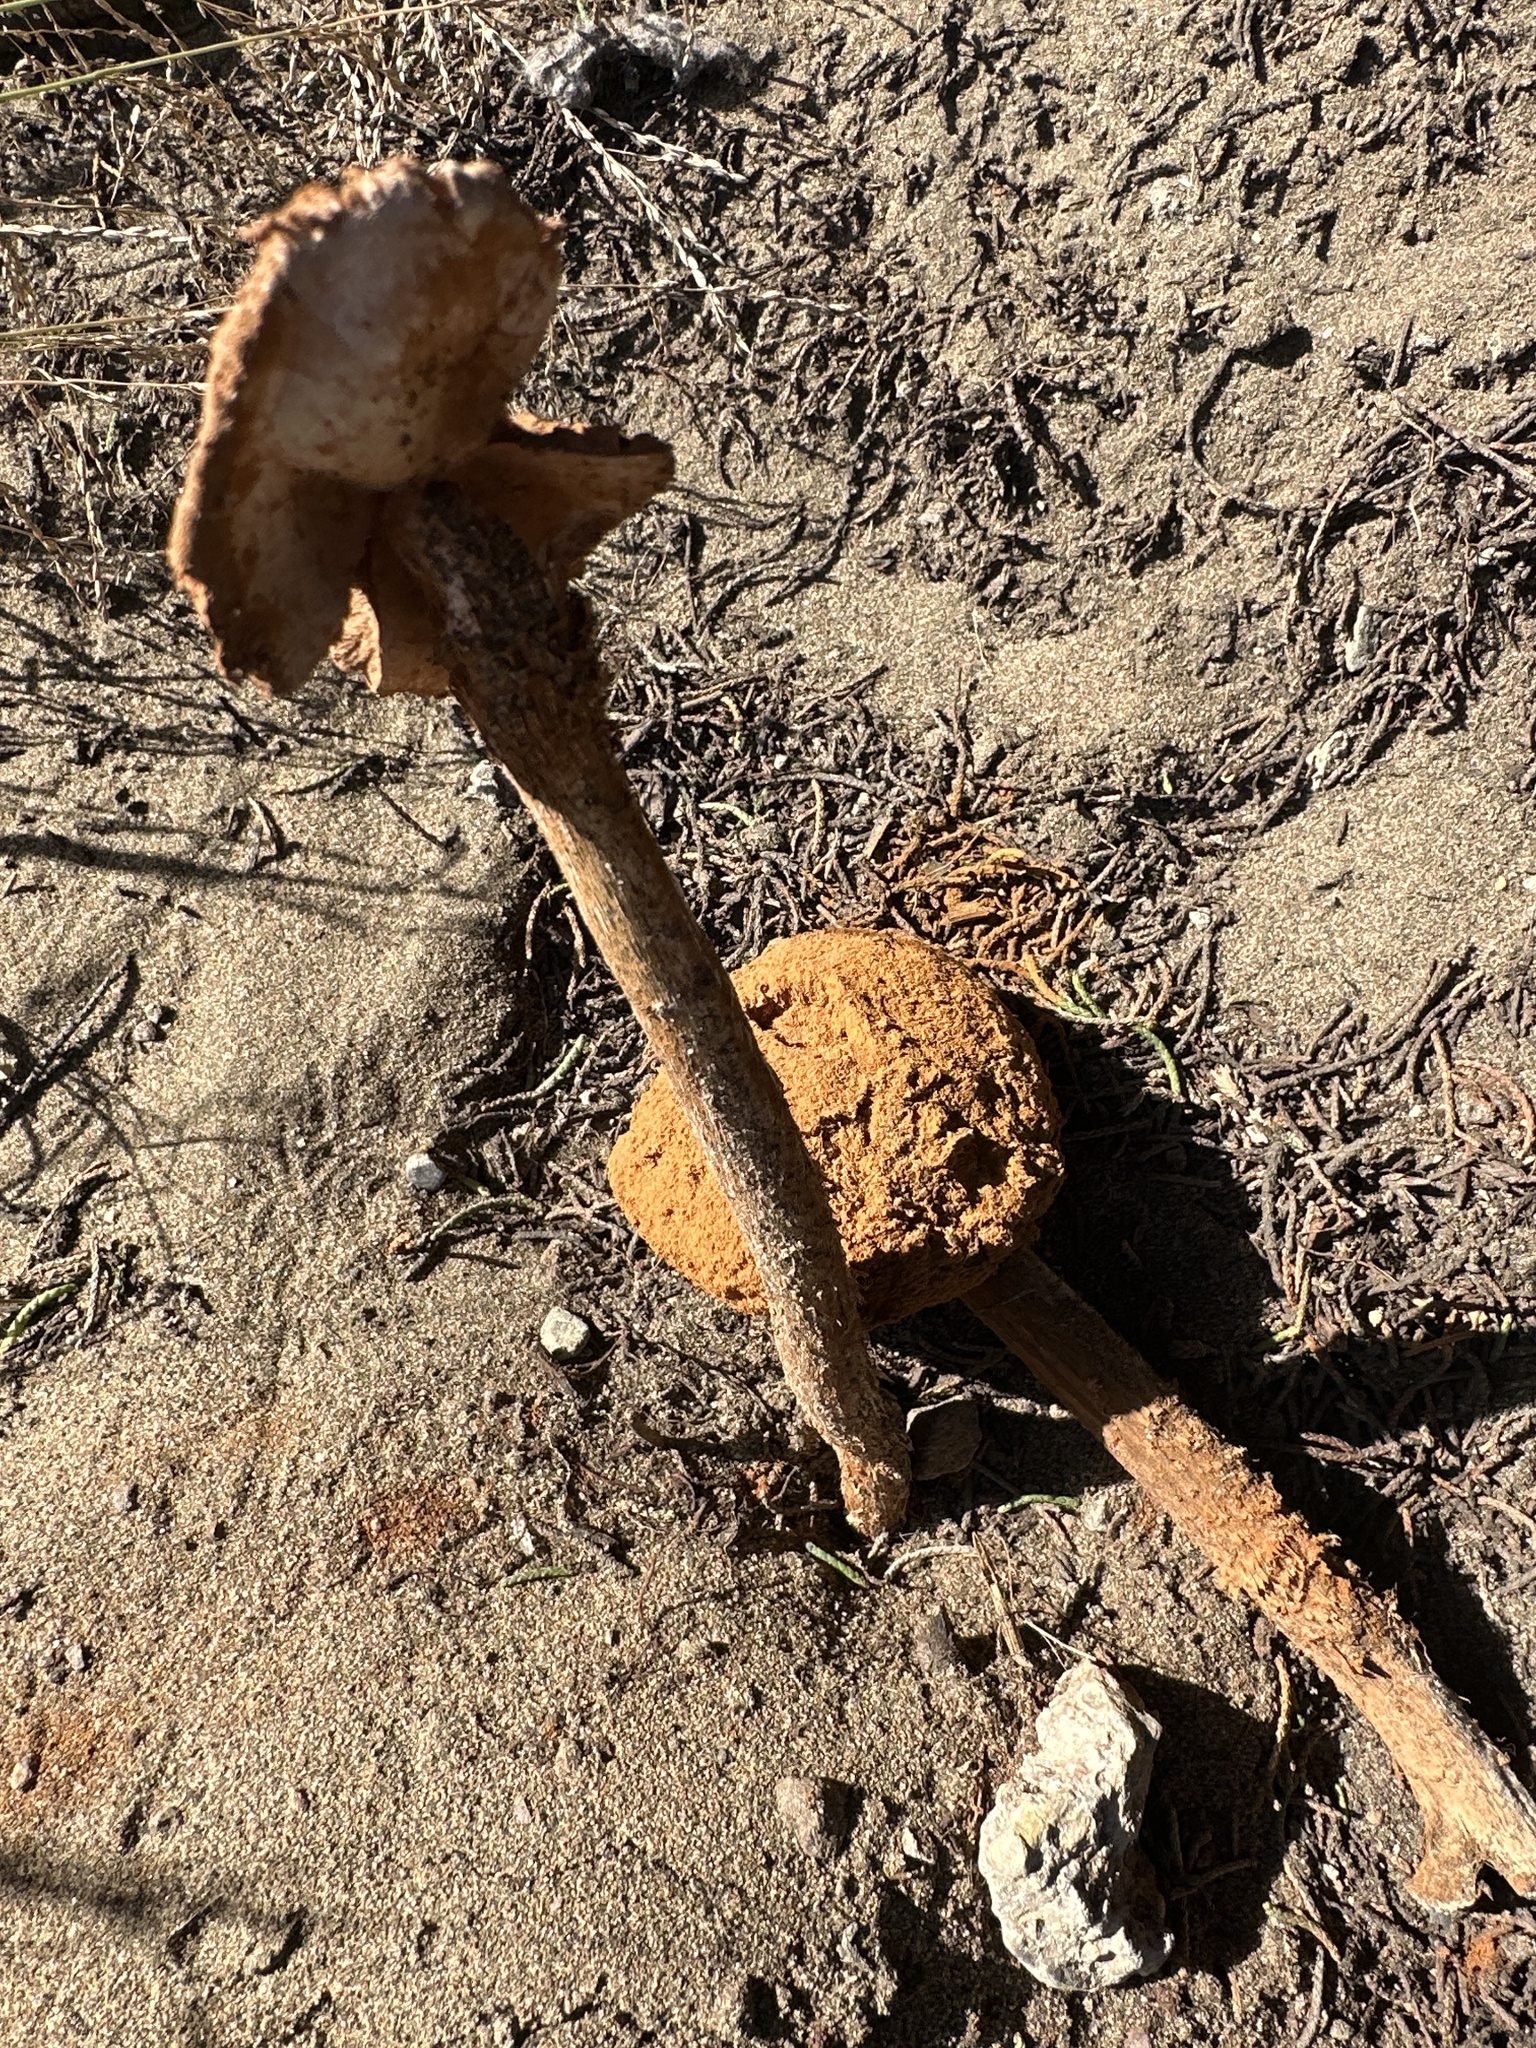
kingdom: Fungi
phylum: Basidiomycota
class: Agaricomycetes
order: Agaricales
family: Agaricaceae
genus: Battarrea
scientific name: Battarrea phalloides
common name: Sandy stiltball
